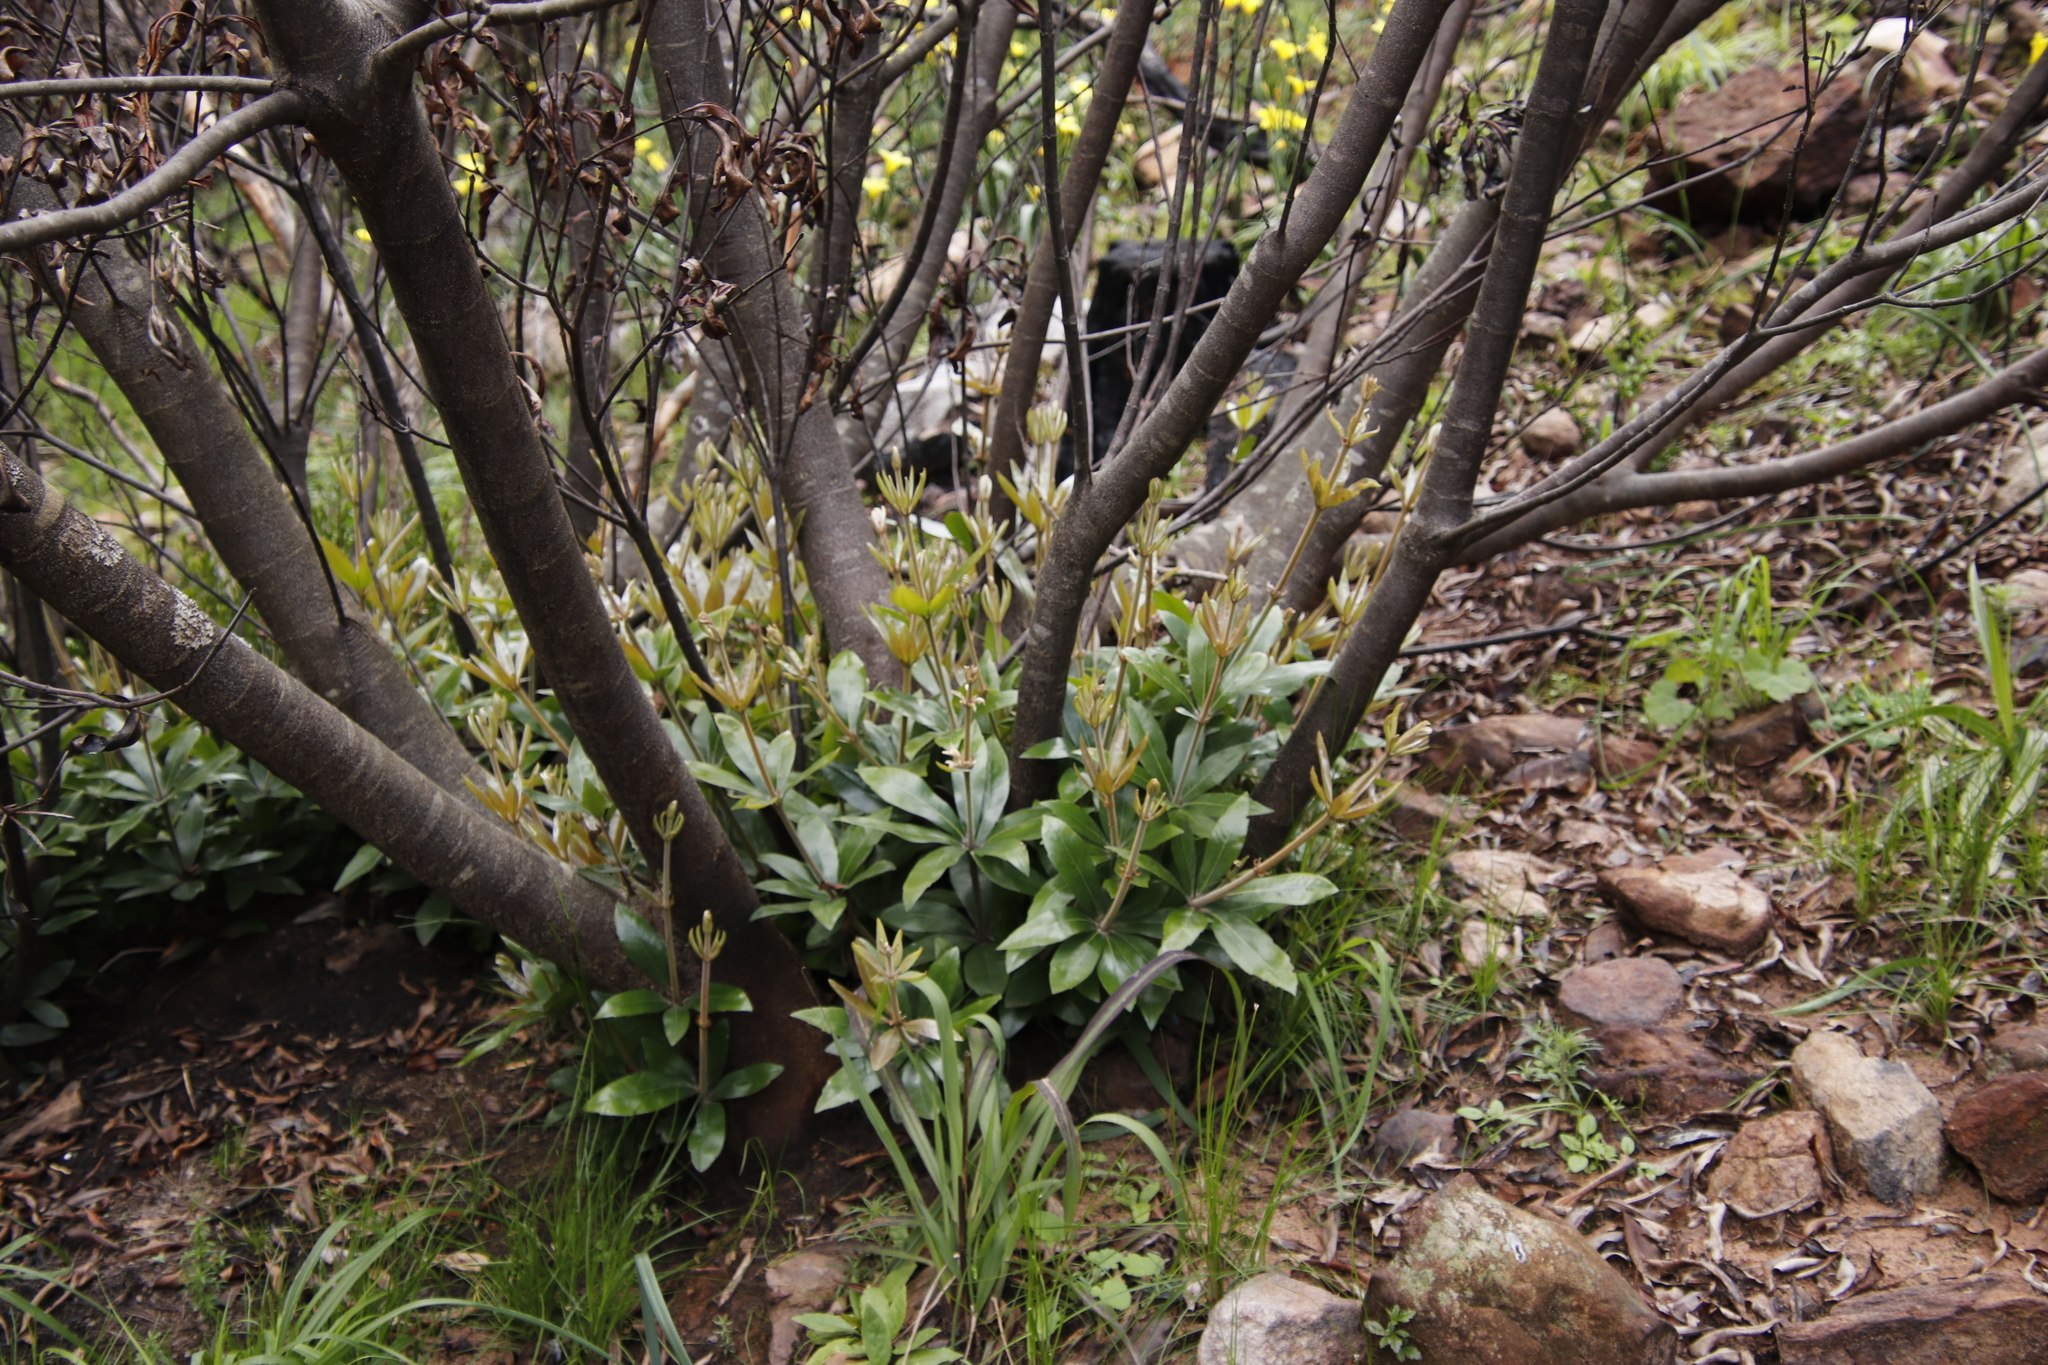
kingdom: Plantae
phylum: Tracheophyta
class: Magnoliopsida
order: Proteales
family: Proteaceae
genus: Brabejum
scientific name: Brabejum stellatifolium
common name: Wild almond
